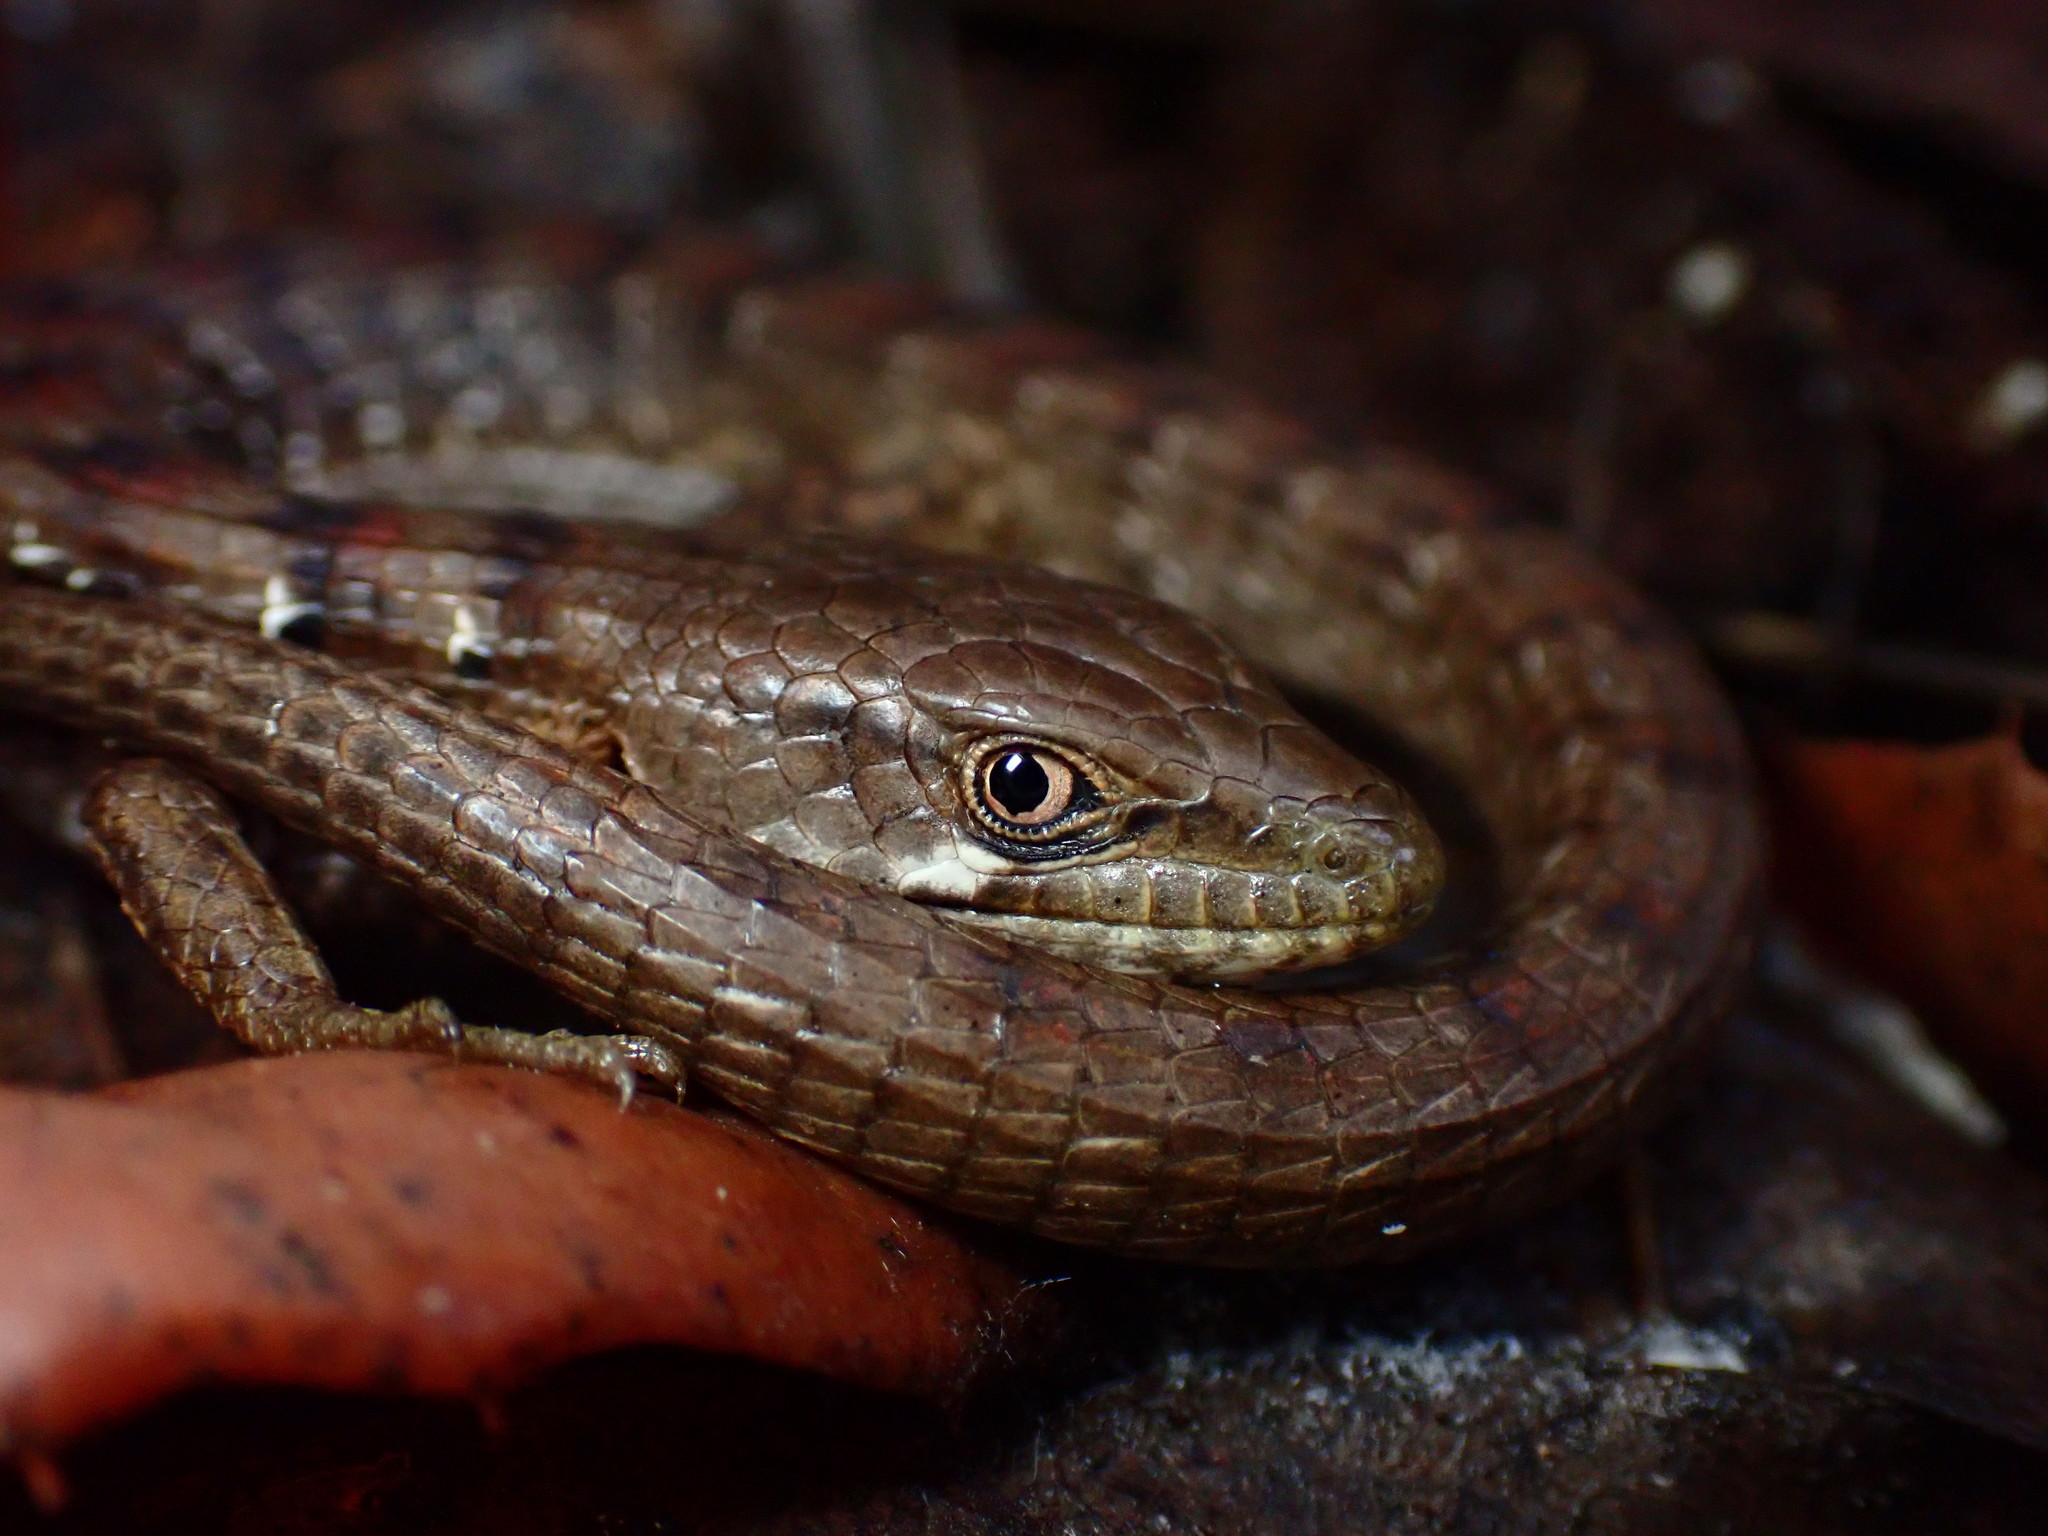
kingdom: Animalia
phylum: Chordata
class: Squamata
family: Anguidae
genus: Elgaria
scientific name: Elgaria multicarinata
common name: Southern alligator lizard
